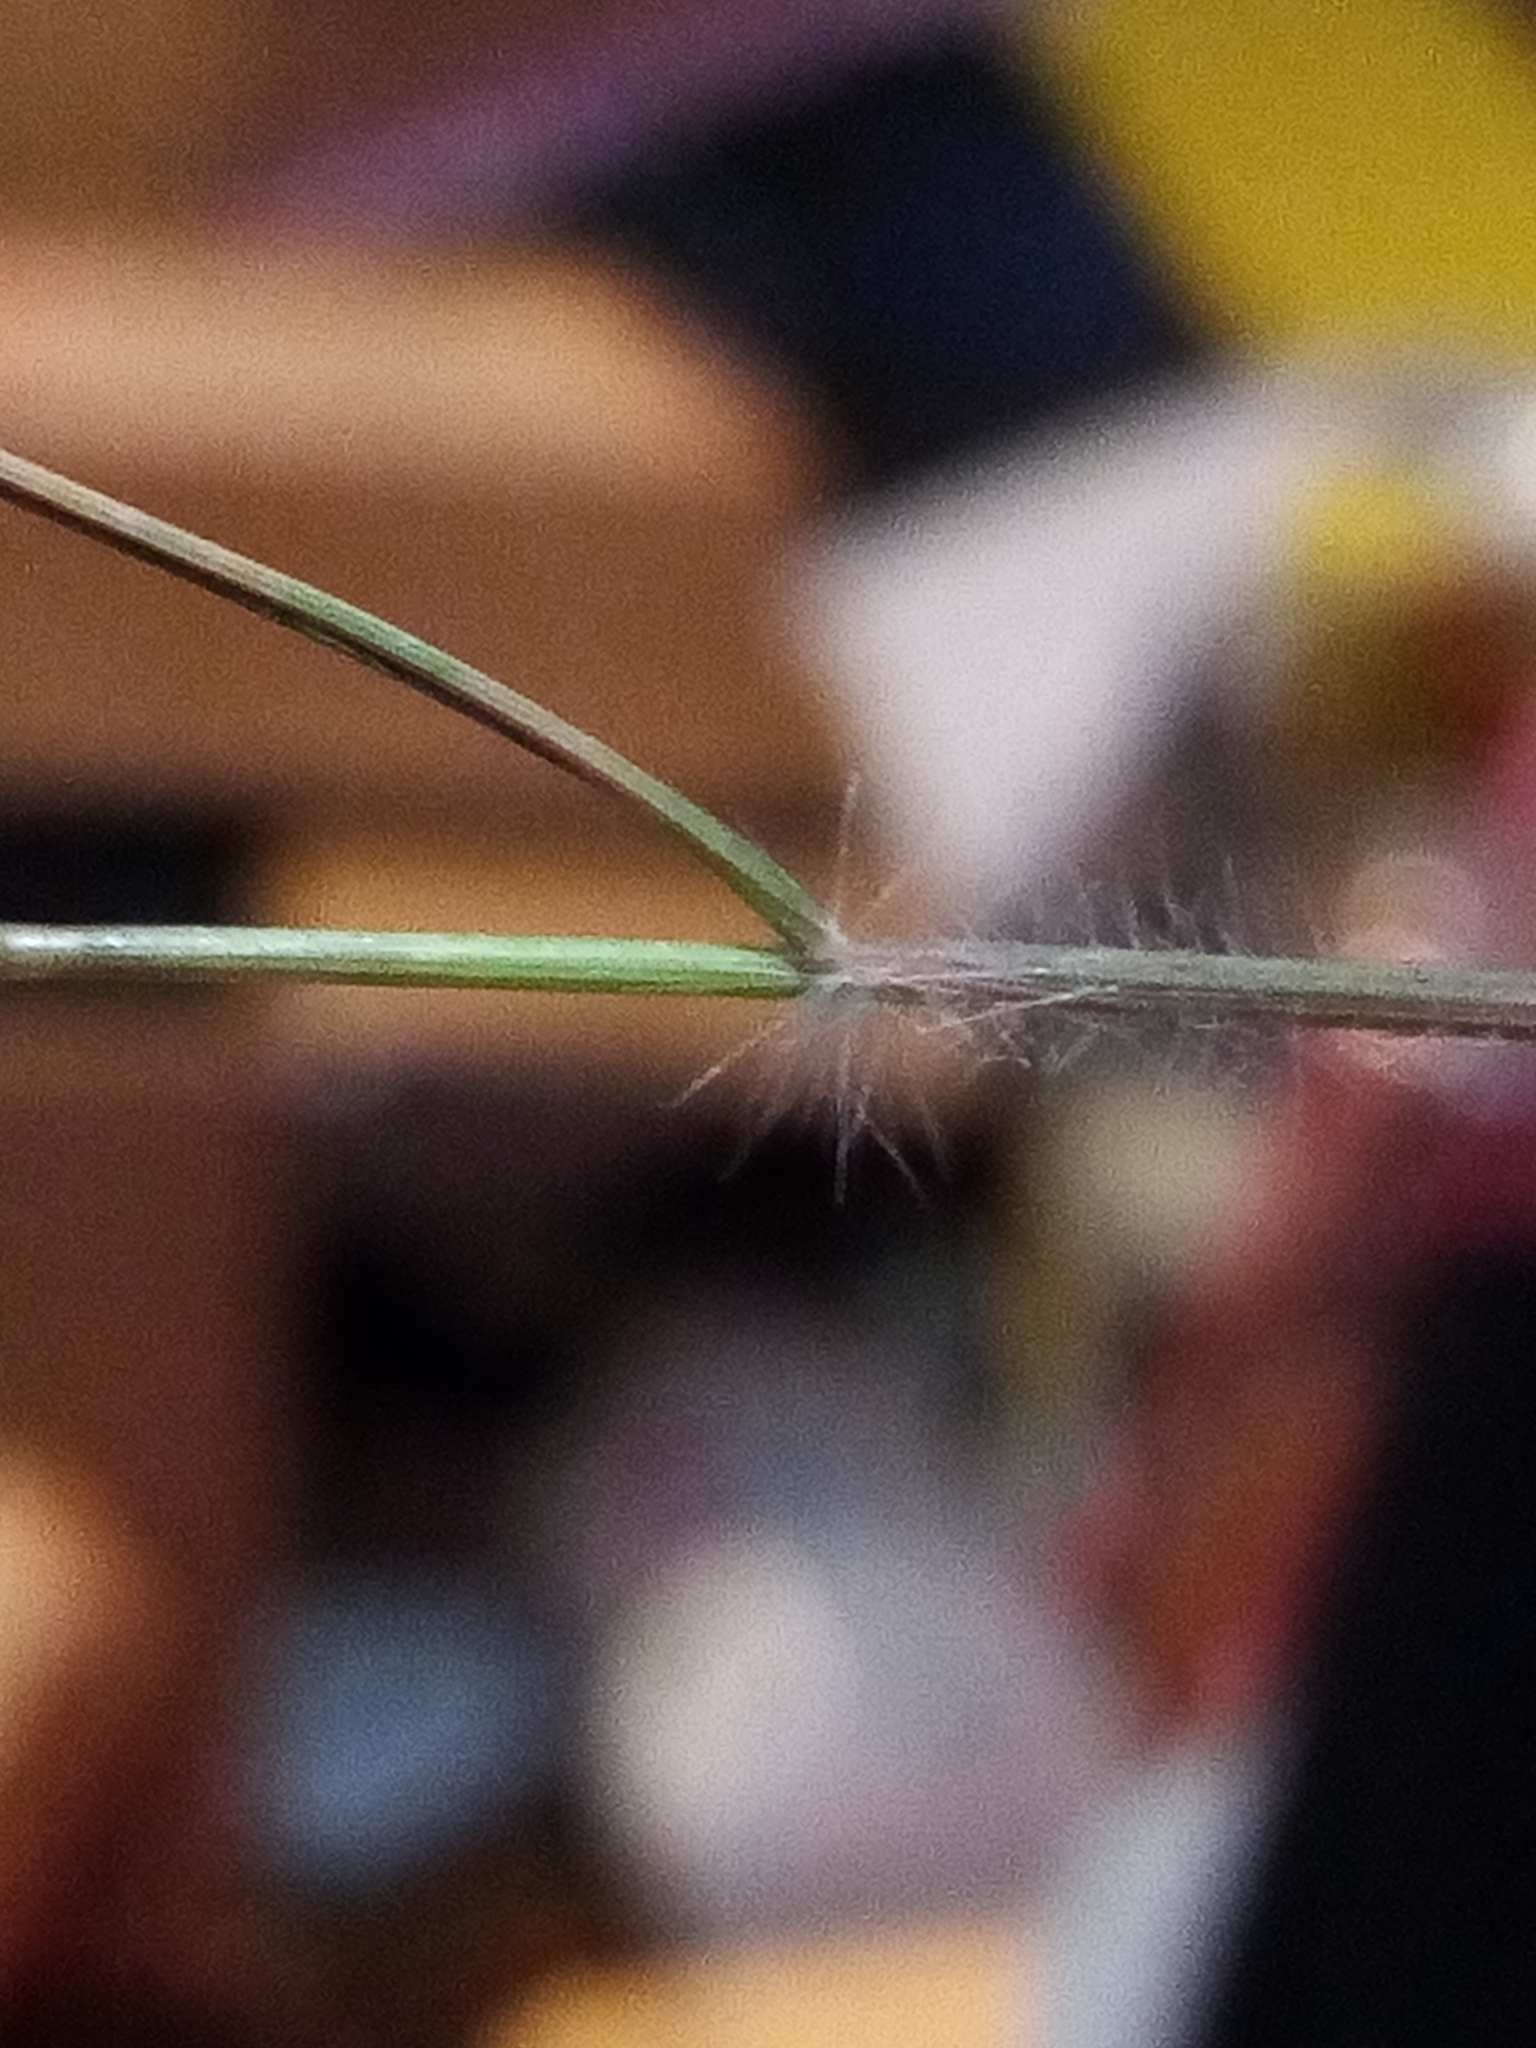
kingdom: Plantae
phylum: Tracheophyta
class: Liliopsida
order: Poales
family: Poaceae
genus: Rytidosperma
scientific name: Rytidosperma gracile
